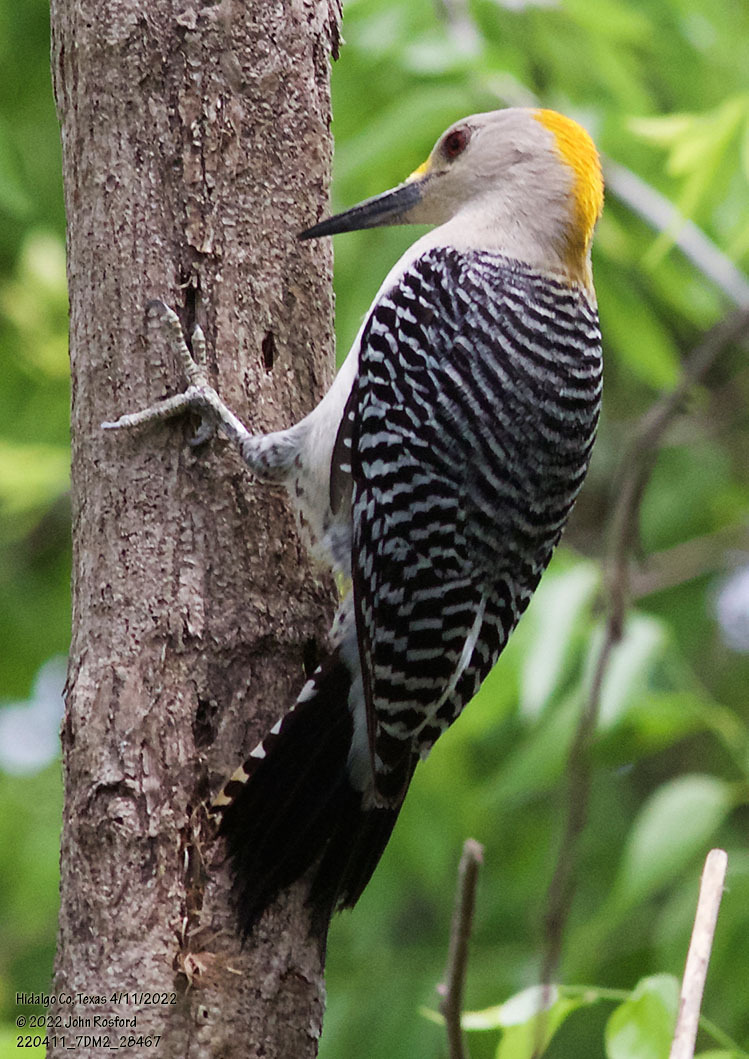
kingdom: Animalia
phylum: Chordata
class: Aves
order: Piciformes
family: Picidae
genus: Melanerpes
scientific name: Melanerpes aurifrons
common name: Golden-fronted woodpecker
